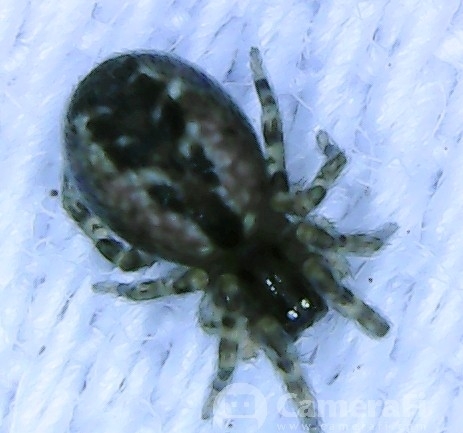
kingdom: Animalia
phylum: Arthropoda
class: Arachnida
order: Araneae
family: Dictynidae
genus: Lathys
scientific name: Lathys humilis
